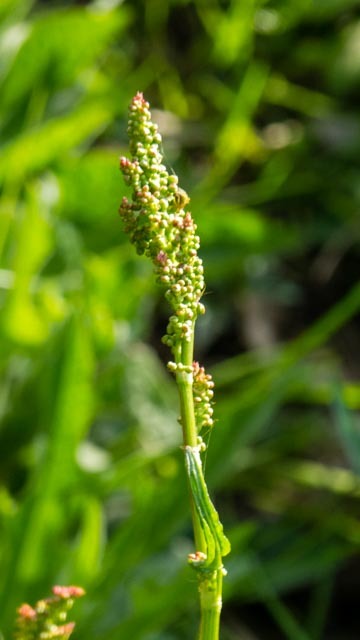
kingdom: Plantae
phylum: Tracheophyta
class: Magnoliopsida
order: Caryophyllales
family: Polygonaceae
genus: Rumex
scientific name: Rumex acetosa
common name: Garden sorrel
